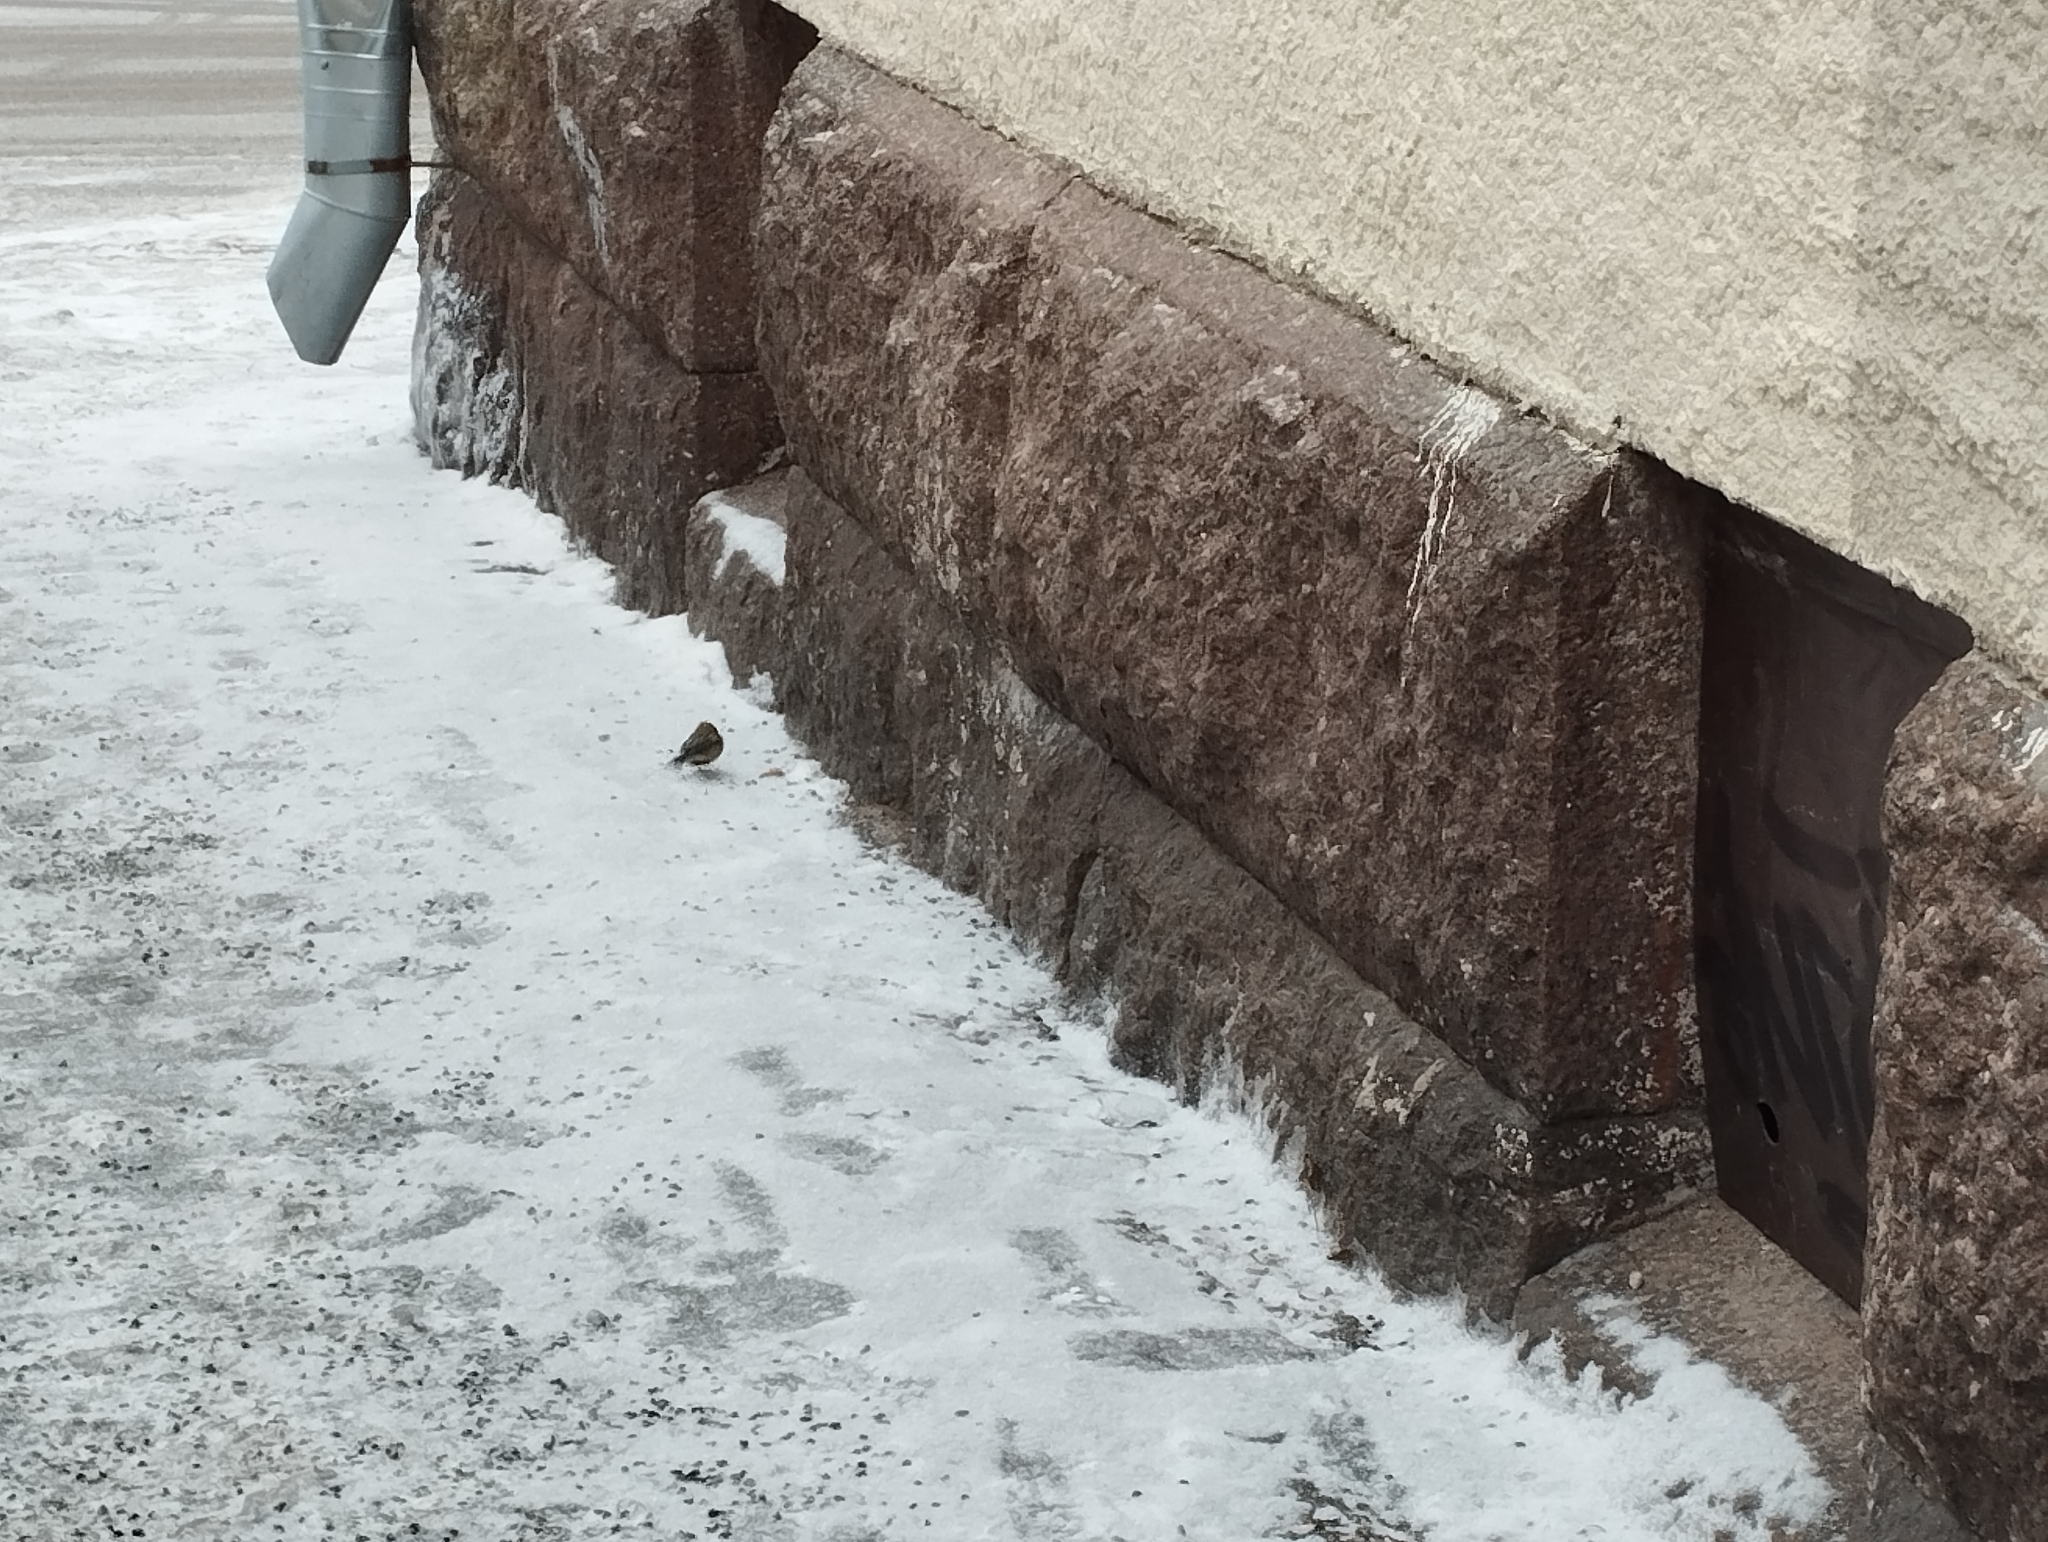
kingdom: Animalia
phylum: Chordata
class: Aves
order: Passeriformes
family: Paridae
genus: Parus
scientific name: Parus major
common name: Great tit
